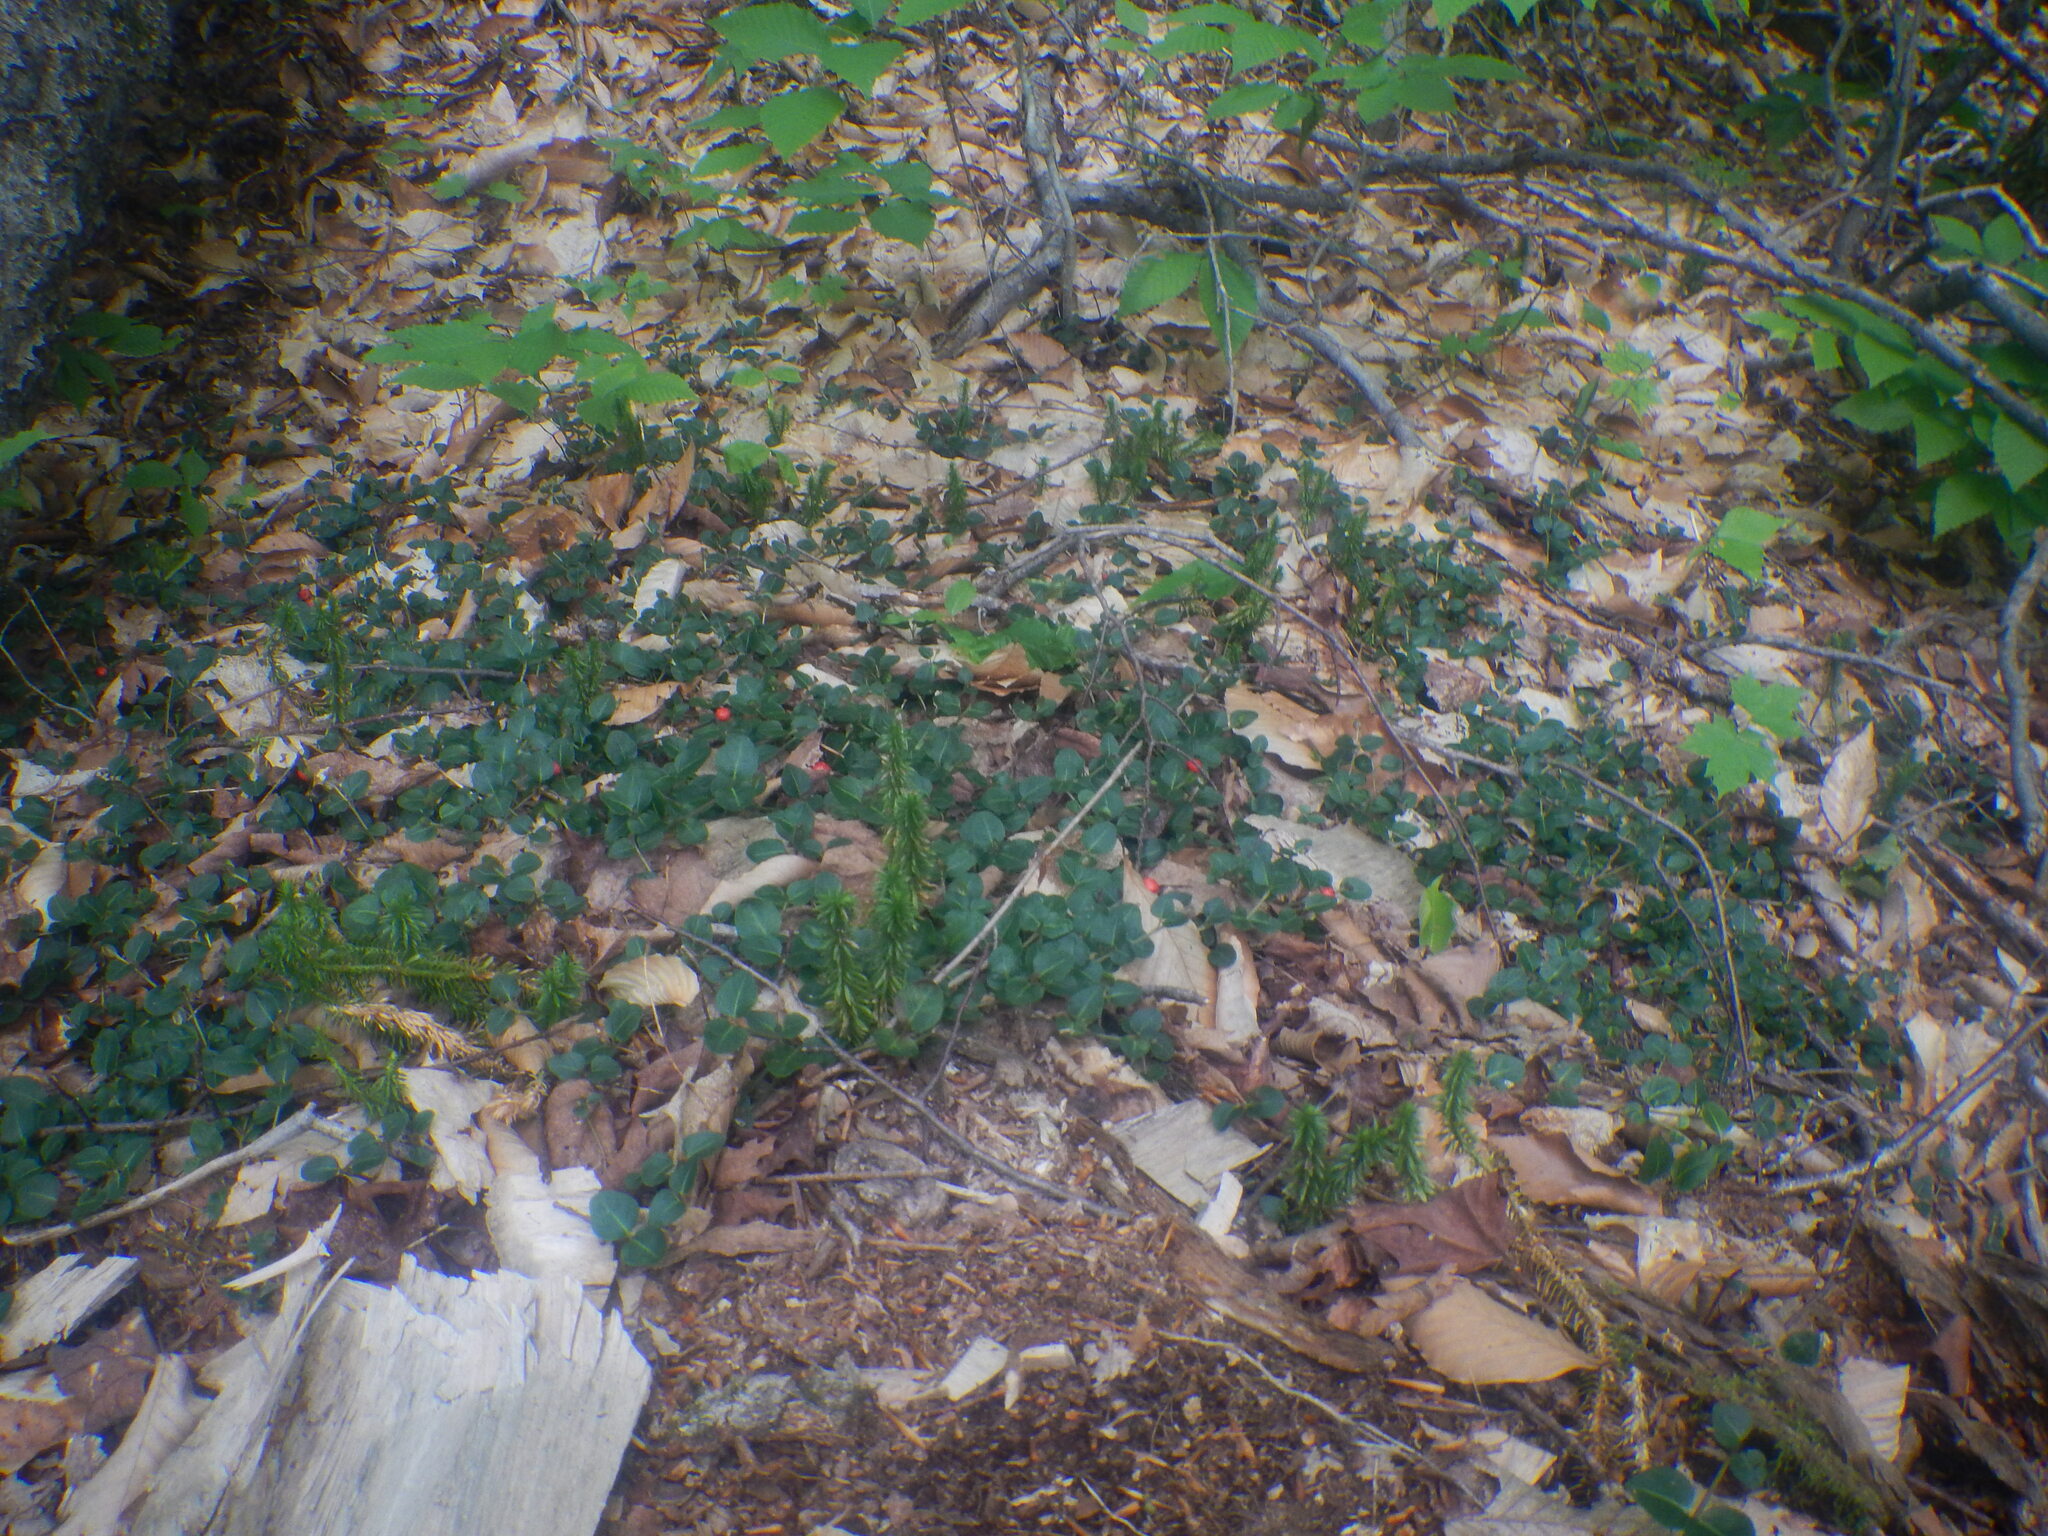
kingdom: Plantae
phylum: Tracheophyta
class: Magnoliopsida
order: Gentianales
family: Rubiaceae
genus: Mitchella
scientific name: Mitchella repens
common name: Partridge-berry
